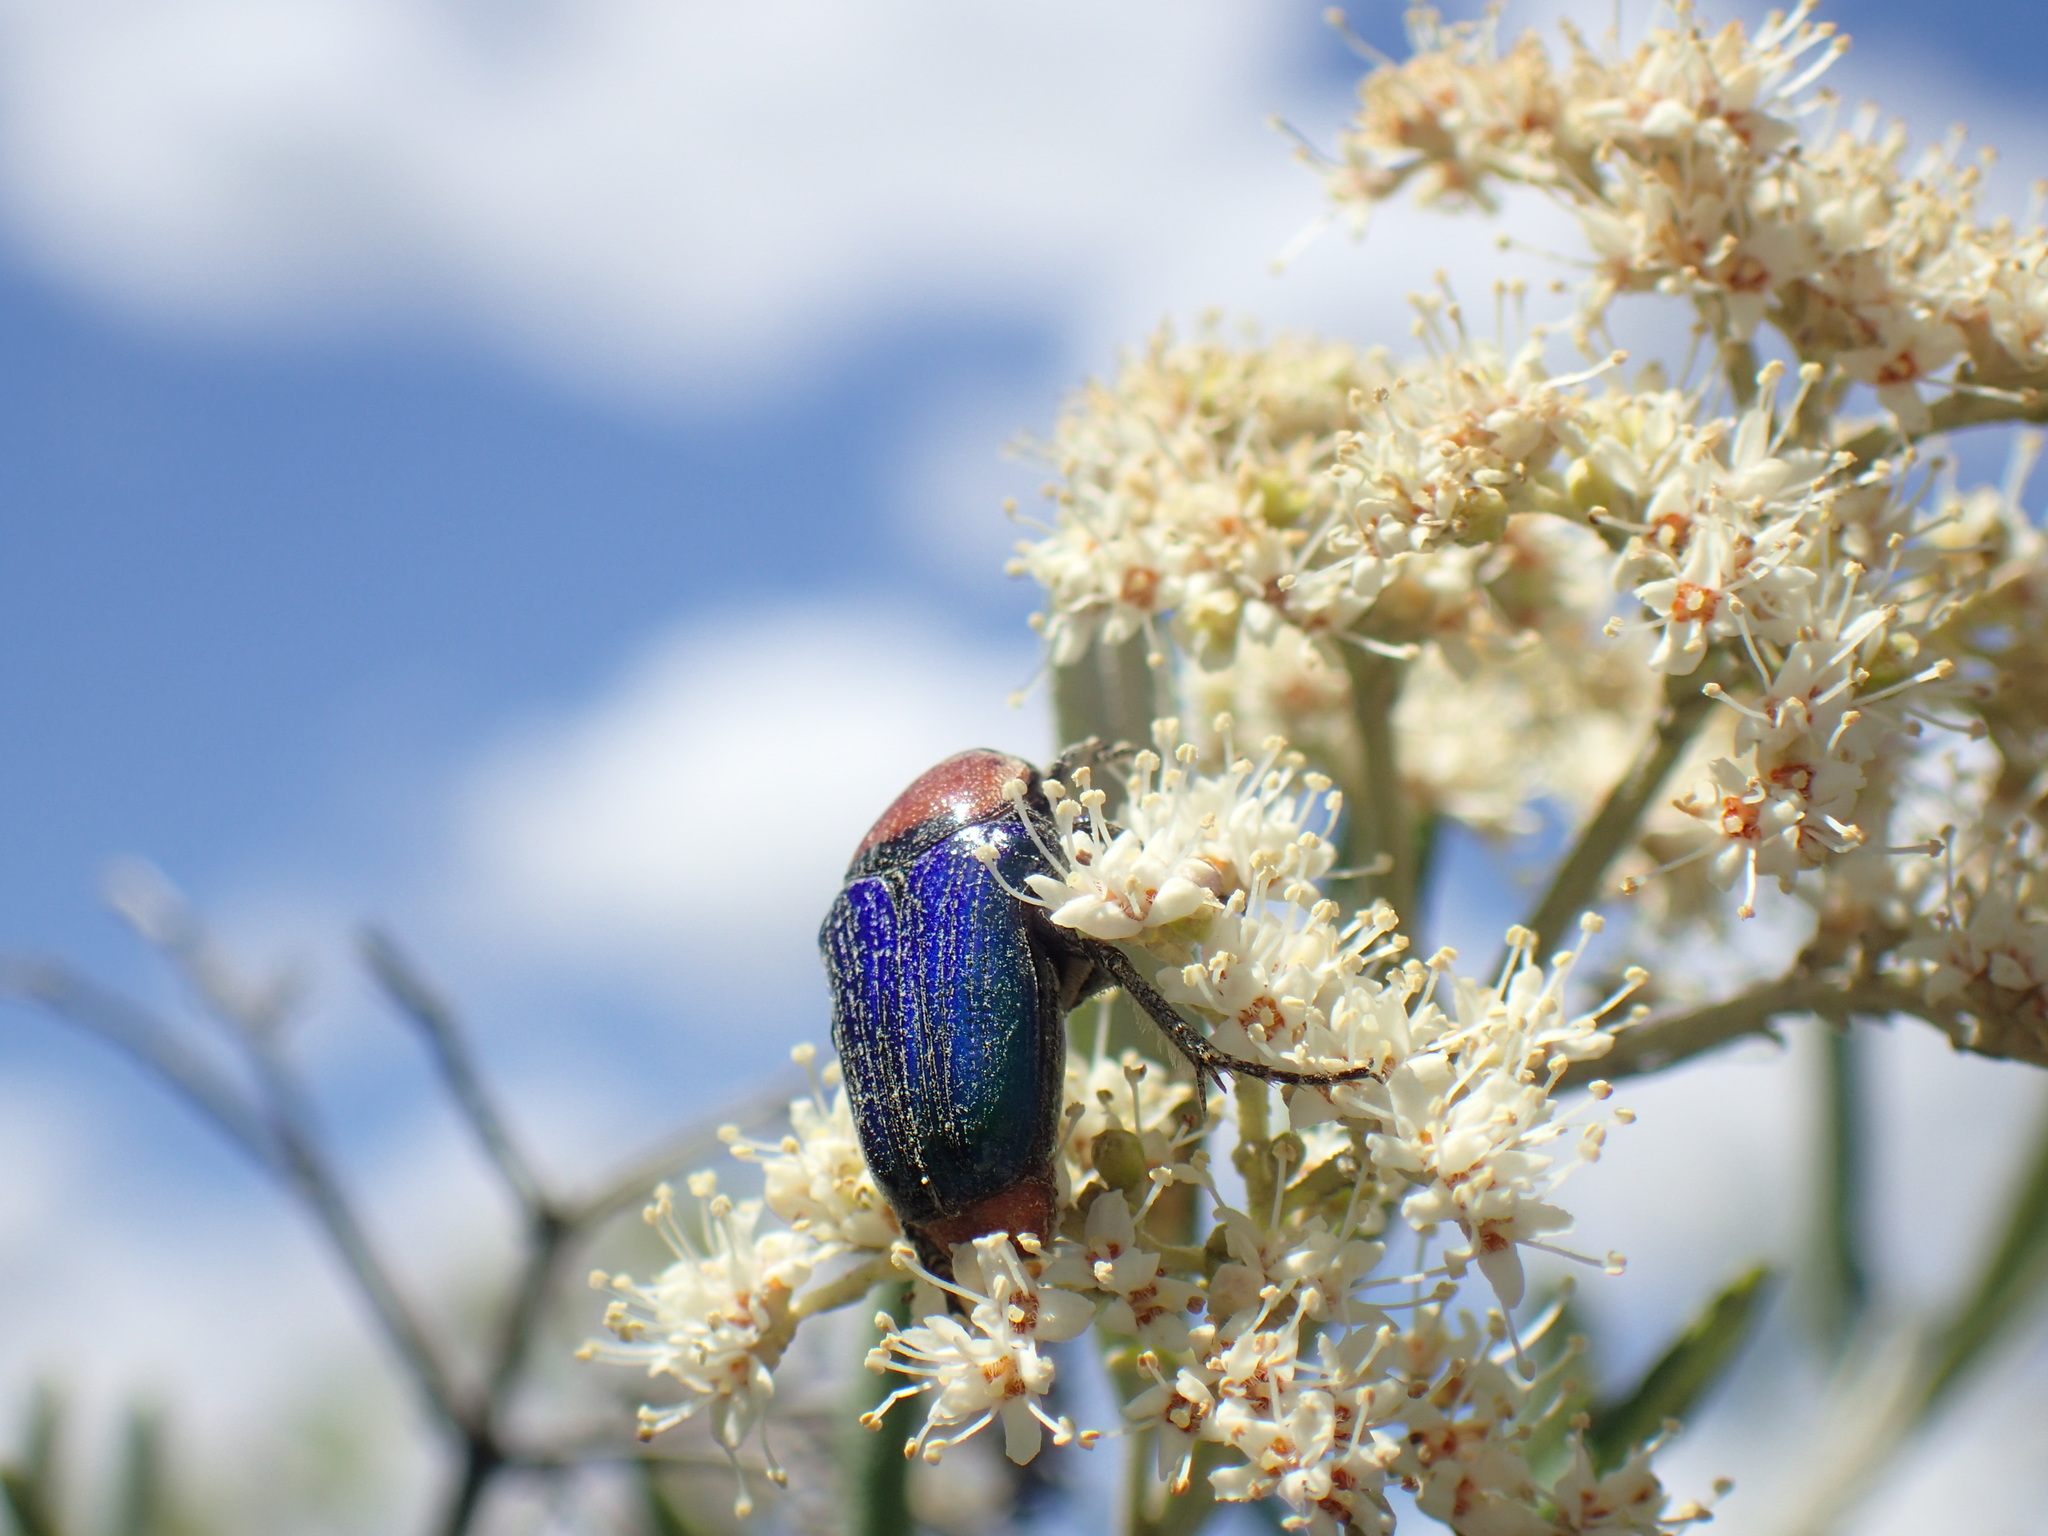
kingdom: Animalia
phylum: Arthropoda
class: Insecta
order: Coleoptera
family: Scarabaeidae
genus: Leucocelis
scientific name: Leucocelis amethystina
